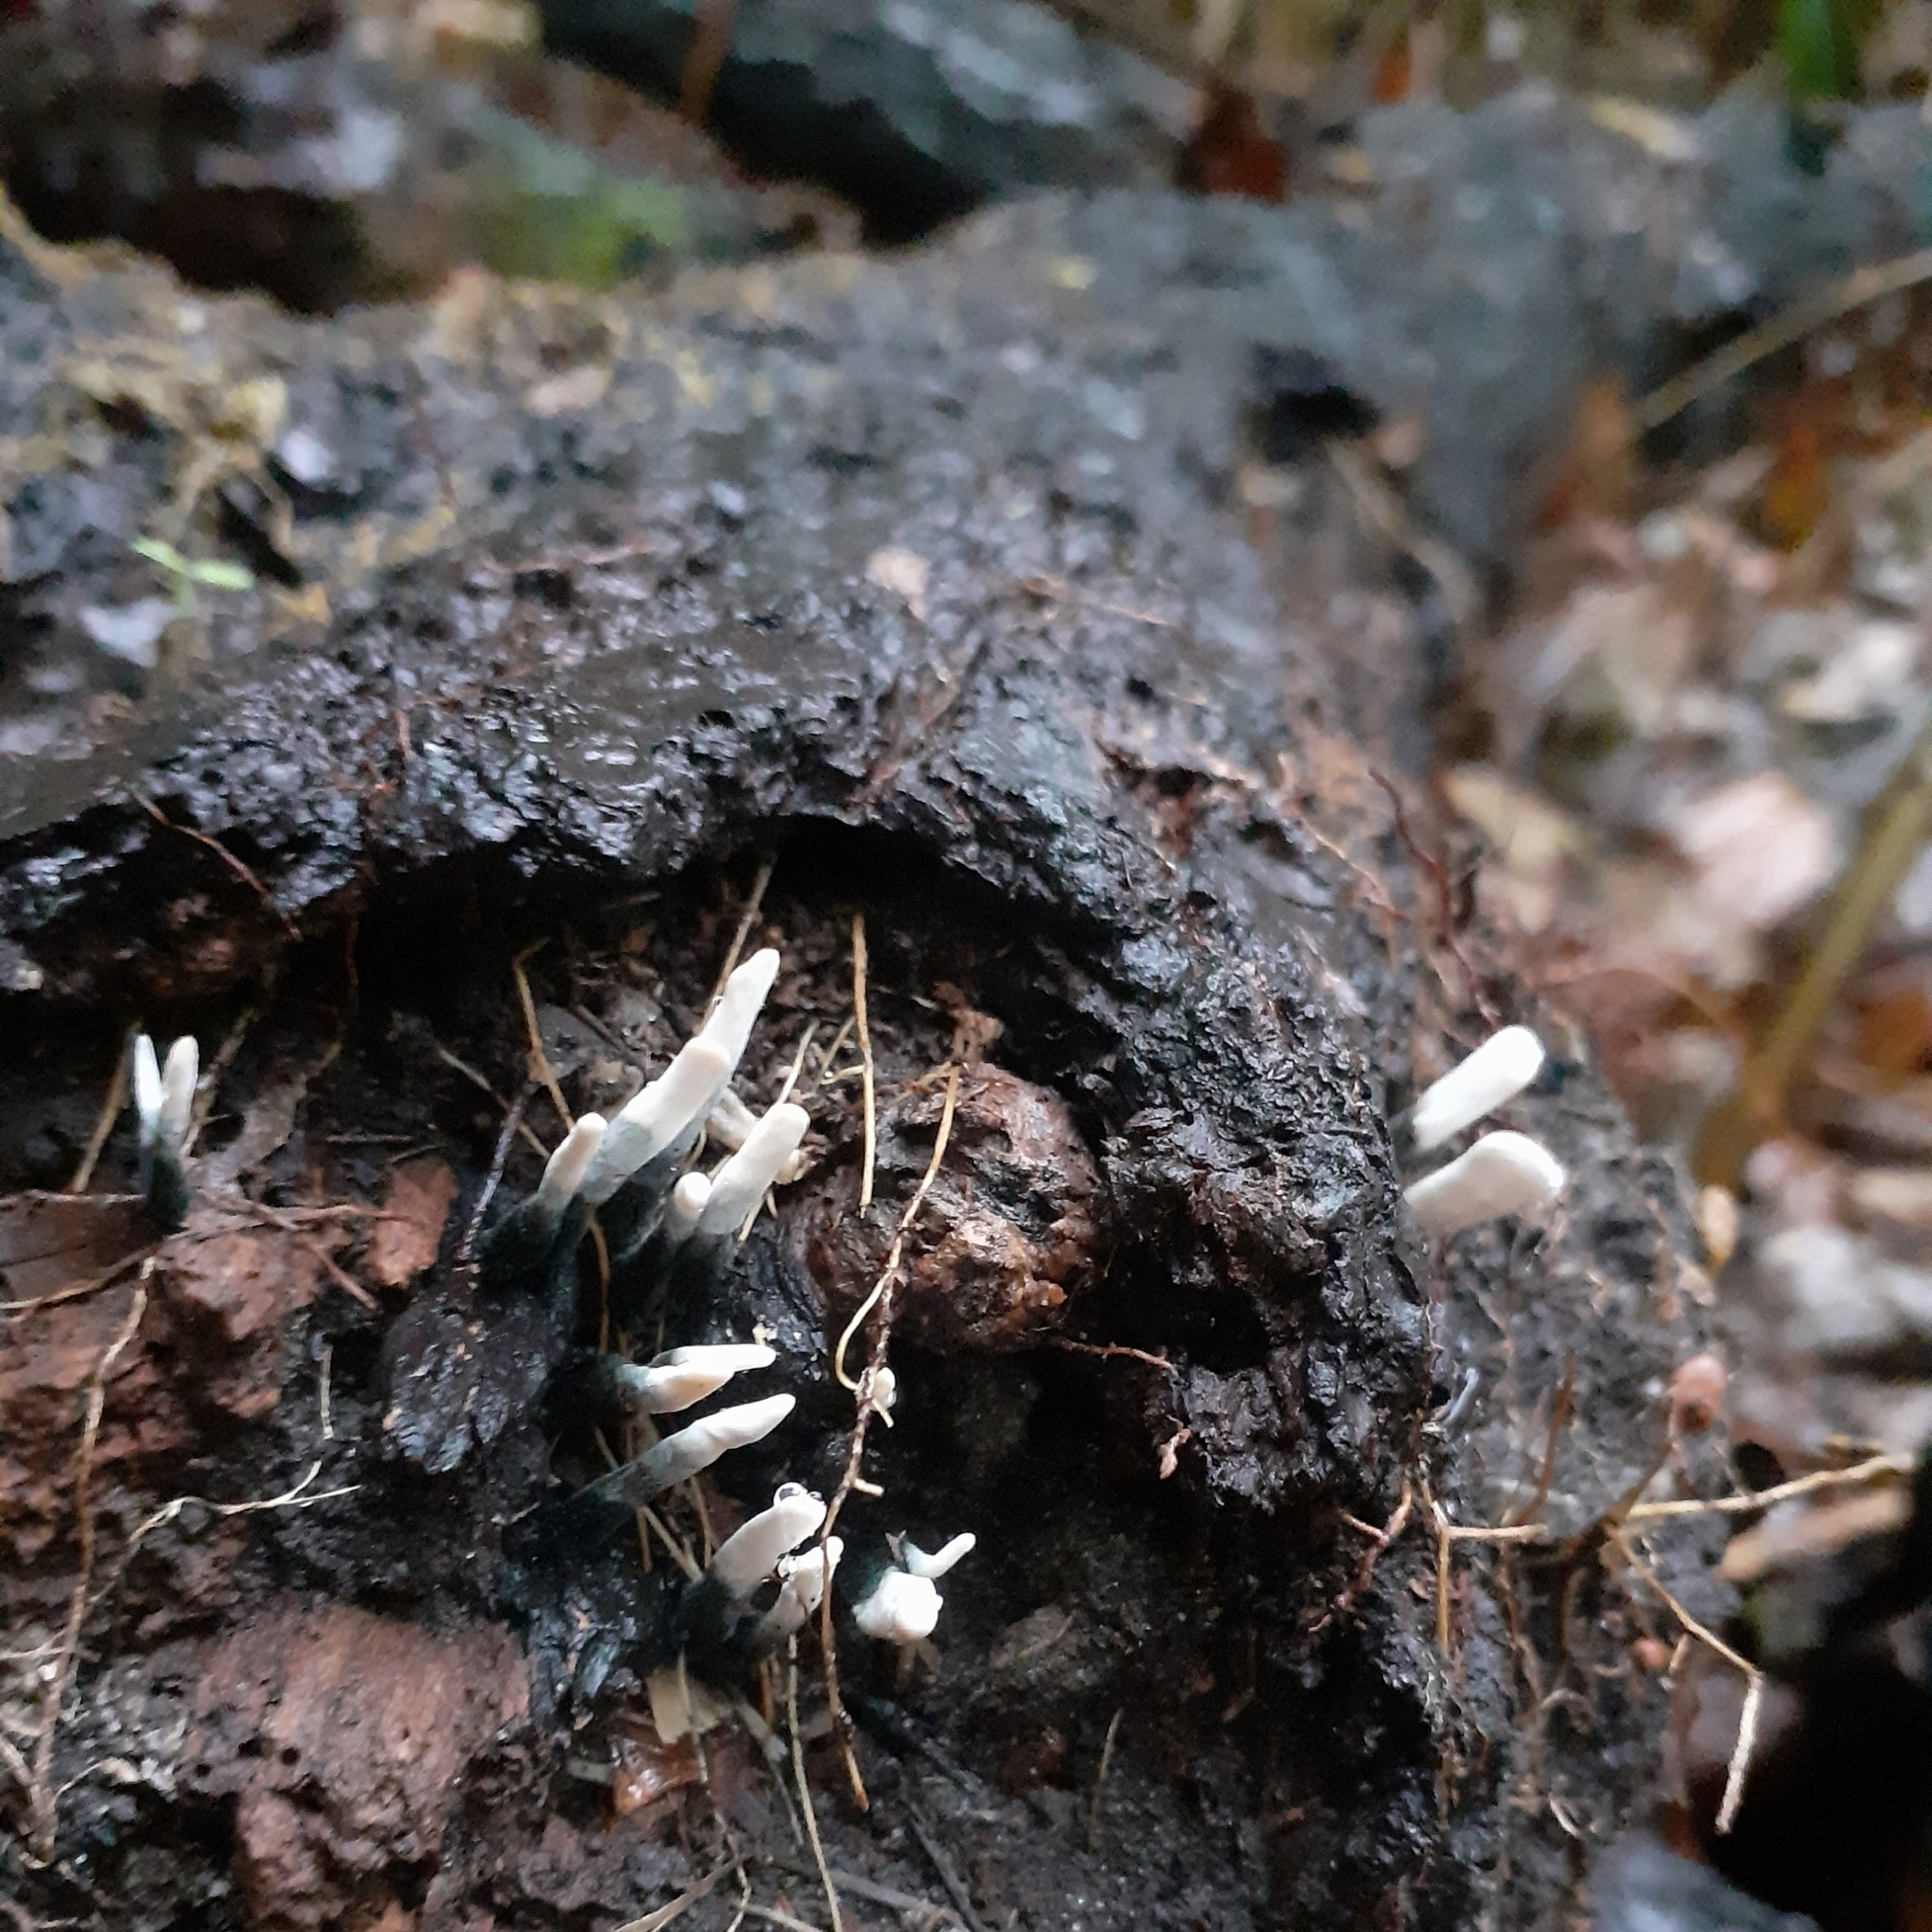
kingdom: Fungi
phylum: Ascomycota
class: Sordariomycetes
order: Xylariales
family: Xylariaceae
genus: Xylaria
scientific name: Xylaria hypoxylon
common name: Candle-snuff fungus
